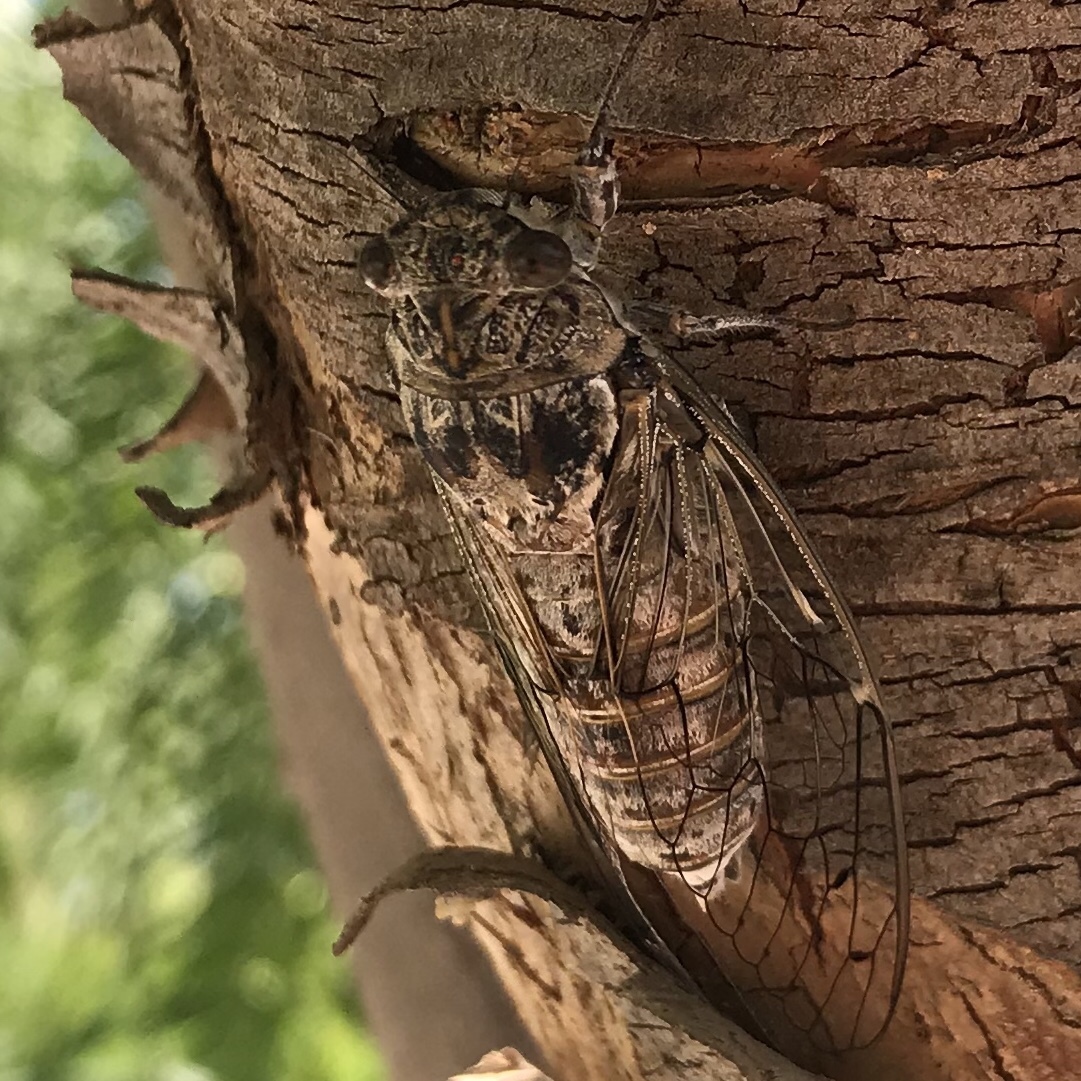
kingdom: Animalia
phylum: Arthropoda
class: Insecta
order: Hemiptera
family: Cicadidae
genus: Cicada
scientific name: Cicada cretensis
